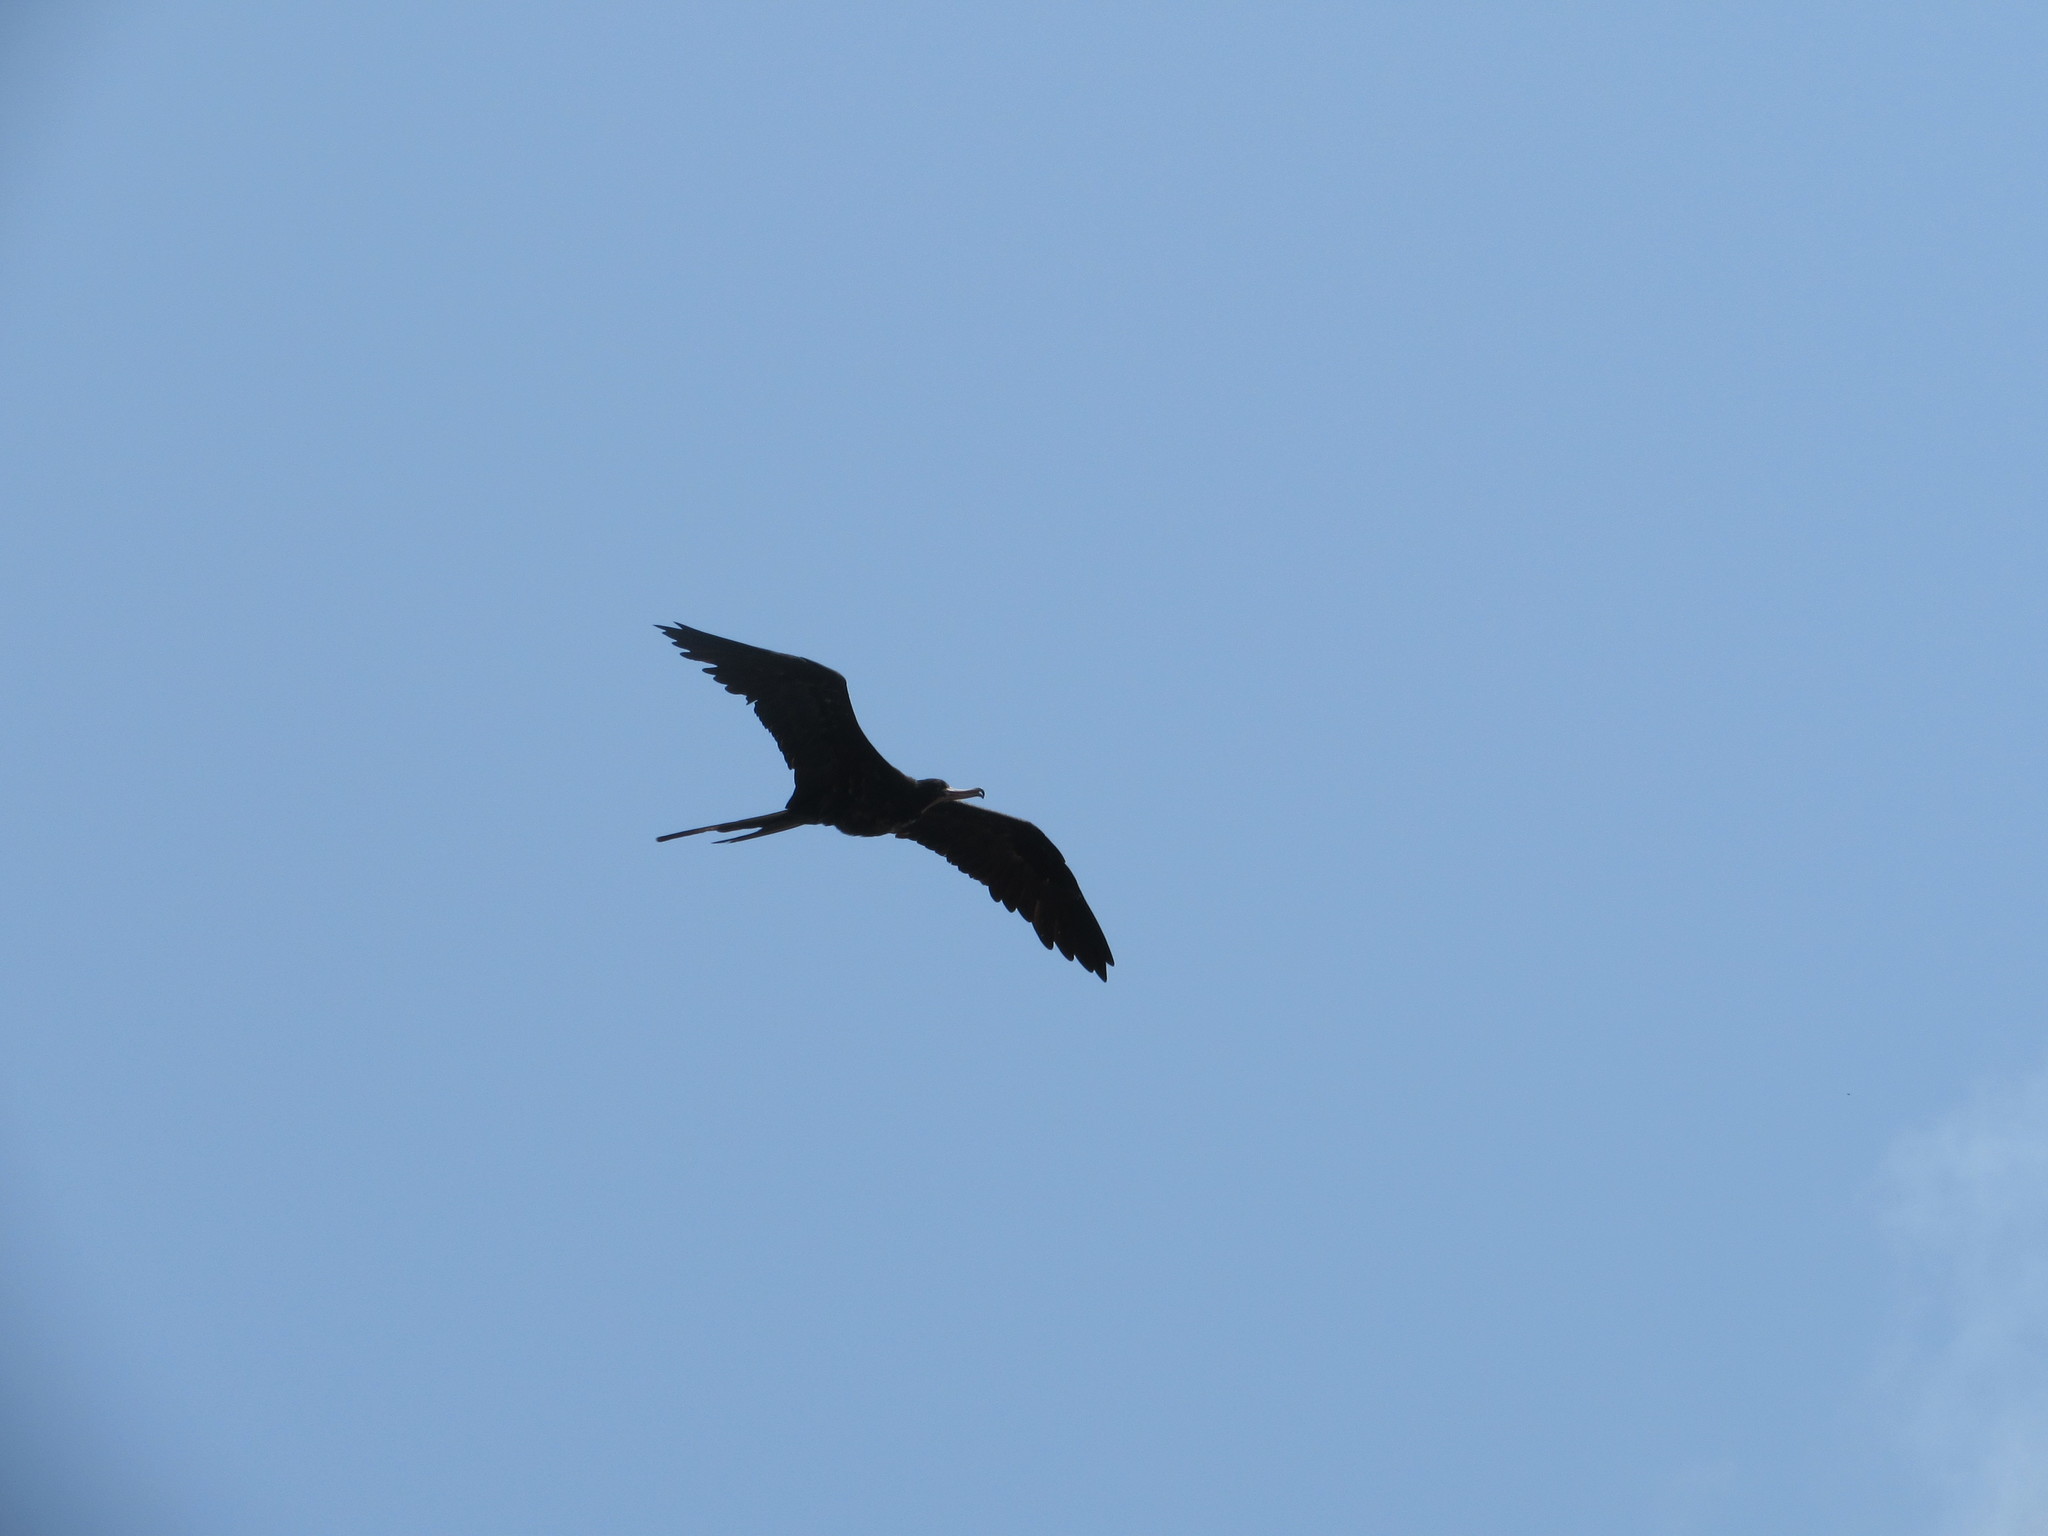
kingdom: Animalia
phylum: Chordata
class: Aves
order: Suliformes
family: Fregatidae
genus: Fregata
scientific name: Fregata magnificens
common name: Magnificent frigatebird
